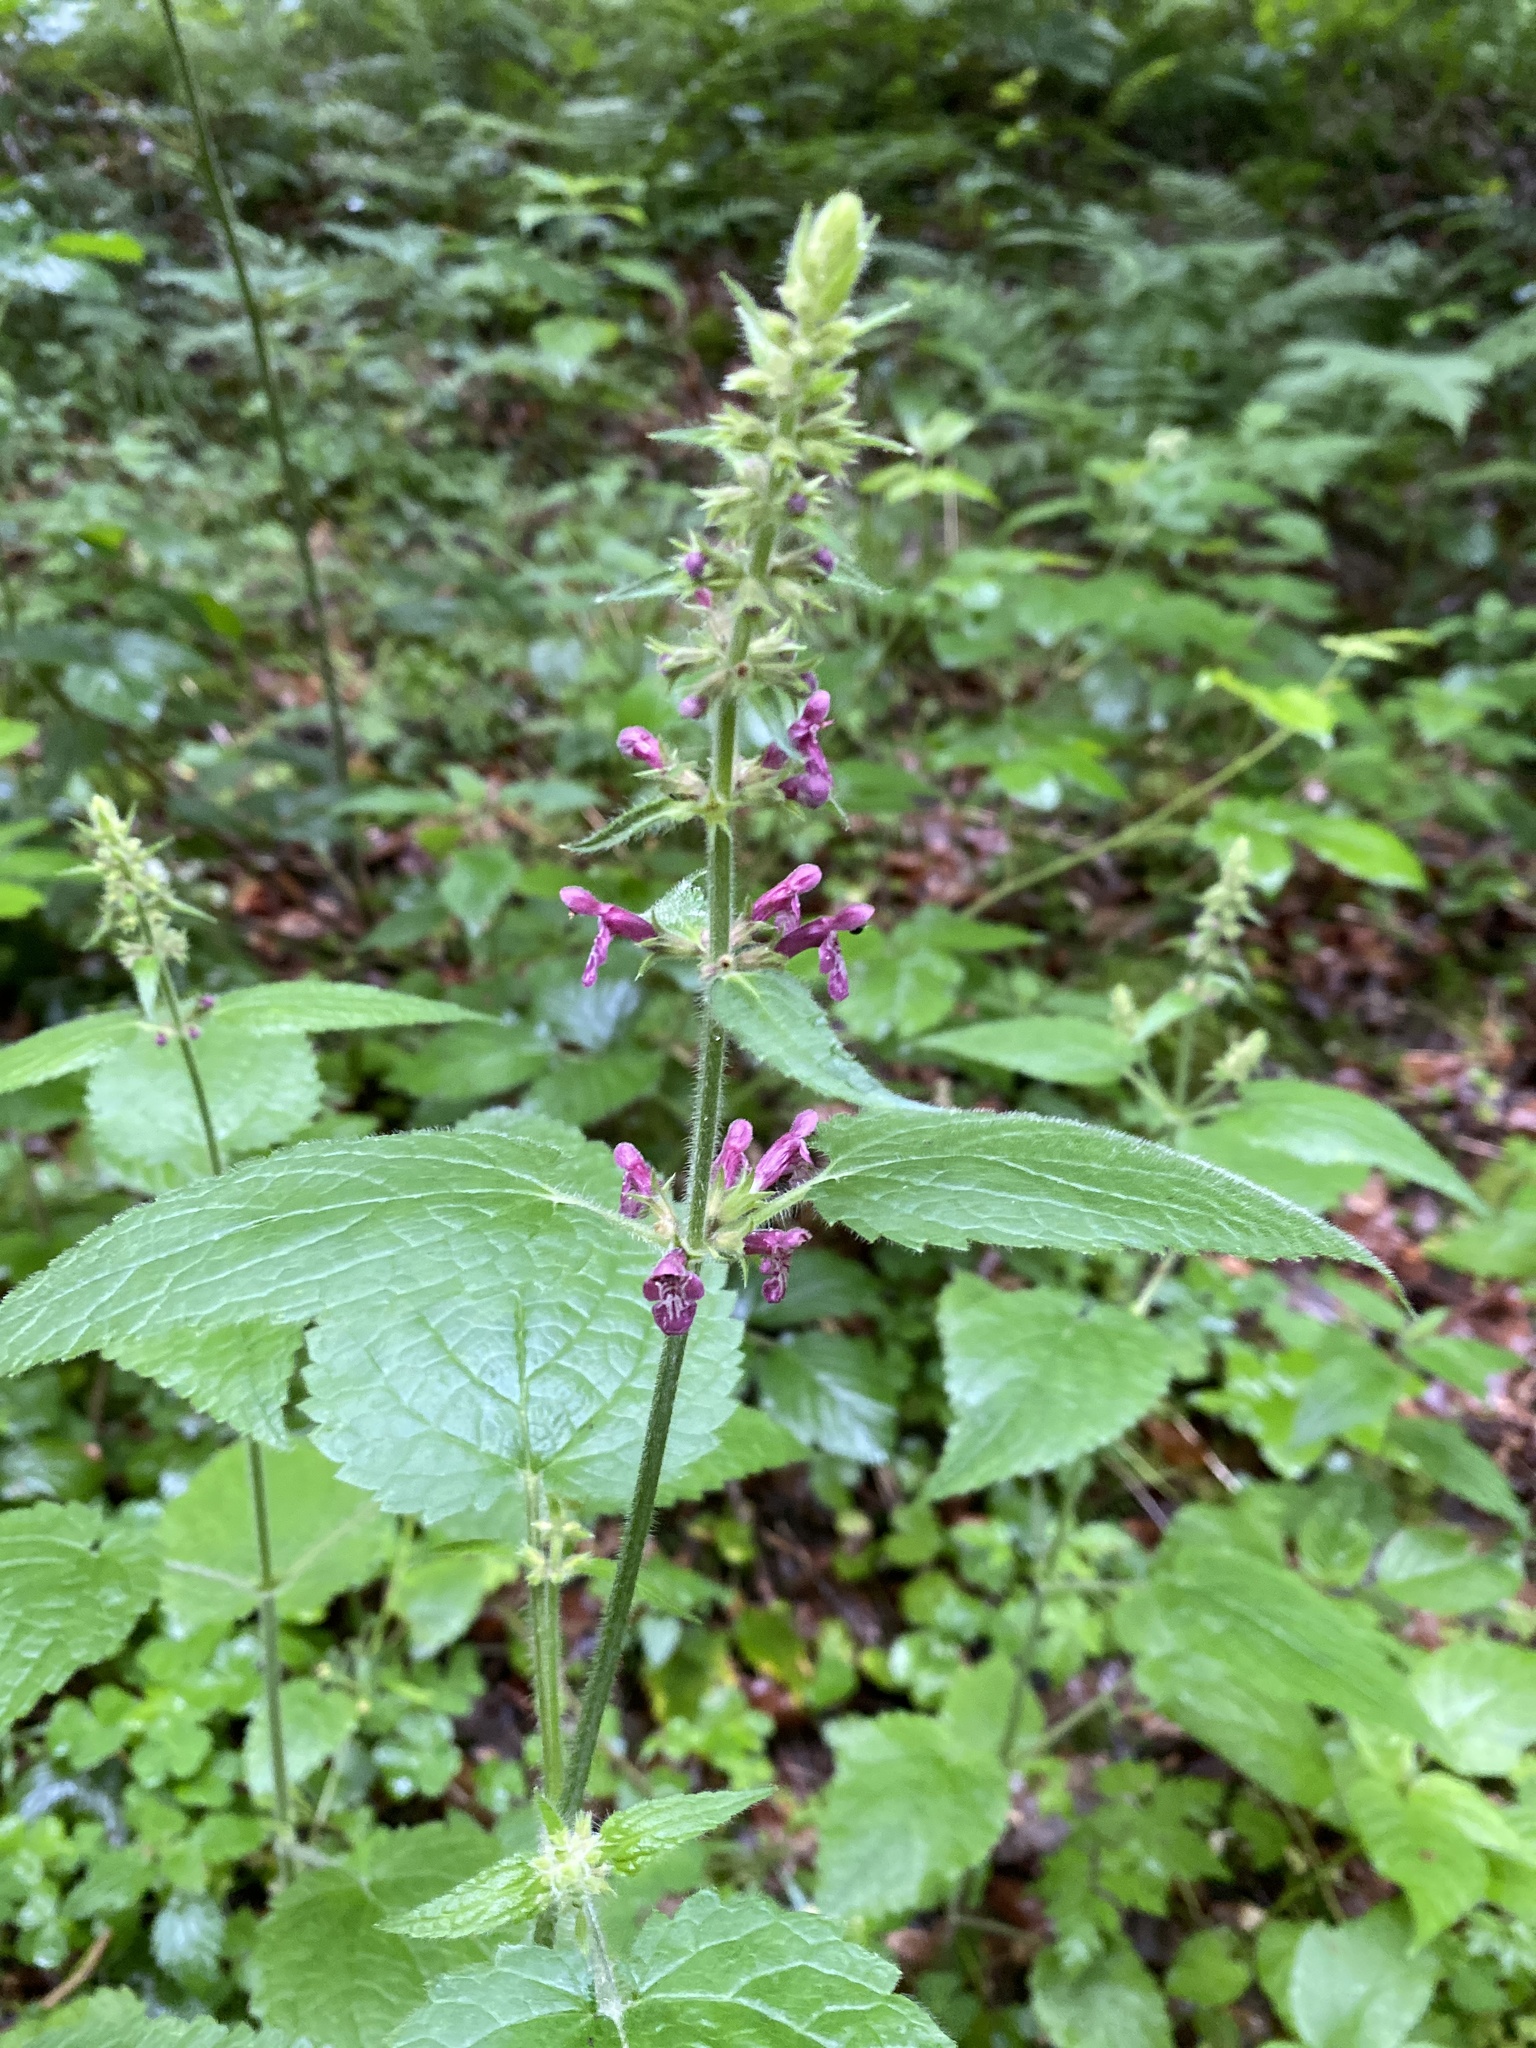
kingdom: Plantae
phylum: Tracheophyta
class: Magnoliopsida
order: Lamiales
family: Lamiaceae
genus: Stachys
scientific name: Stachys sylvatica
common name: Hedge woundwort
